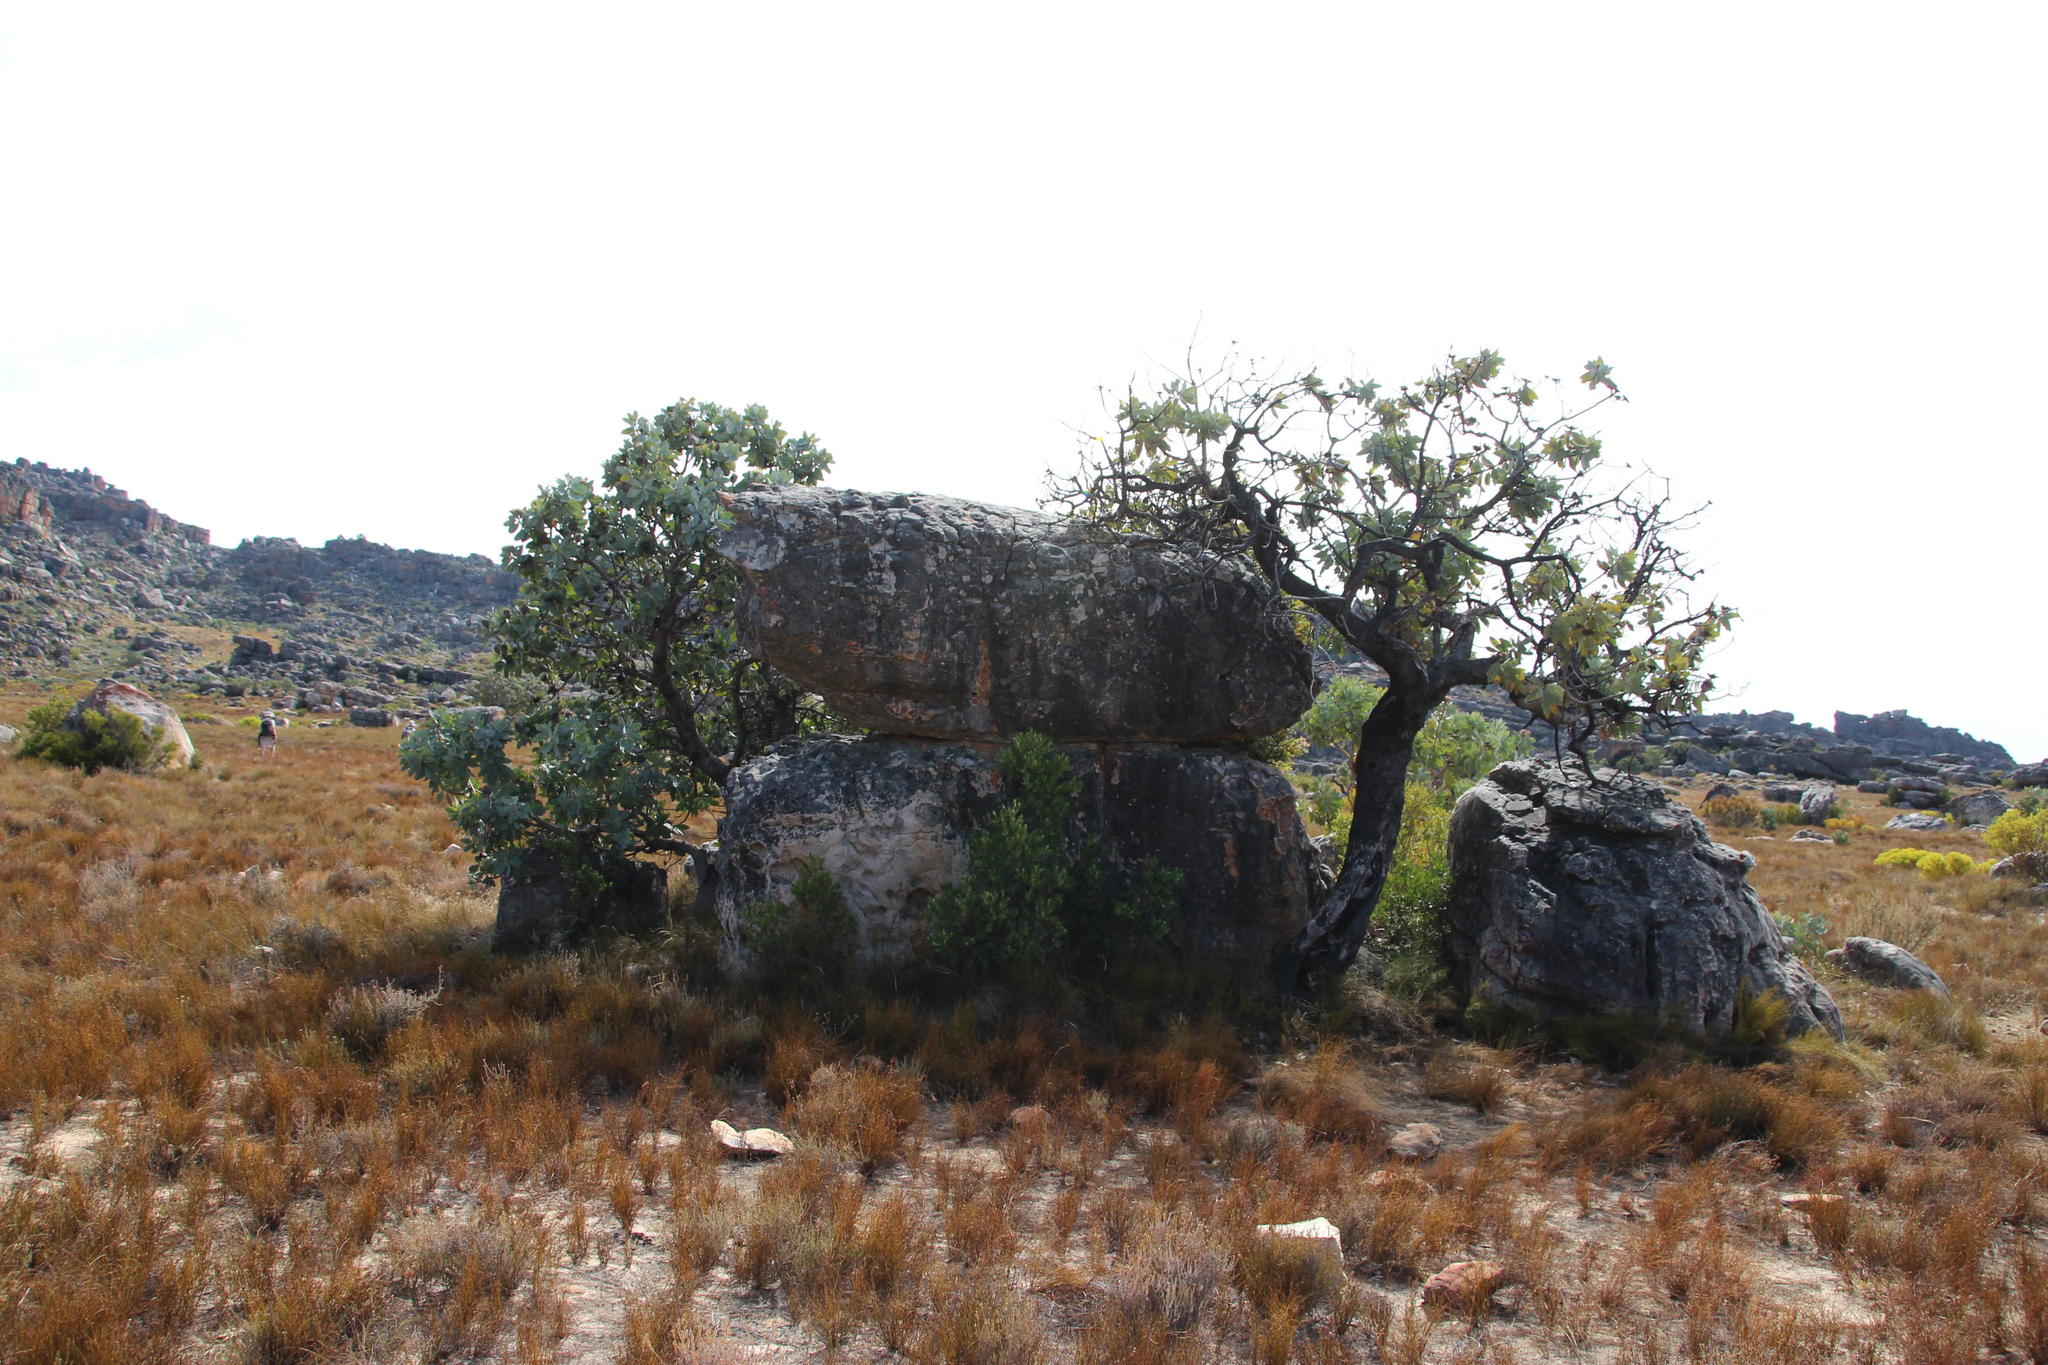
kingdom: Plantae
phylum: Tracheophyta
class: Magnoliopsida
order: Proteales
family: Proteaceae
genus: Protea
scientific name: Protea nitida
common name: Tree protea
